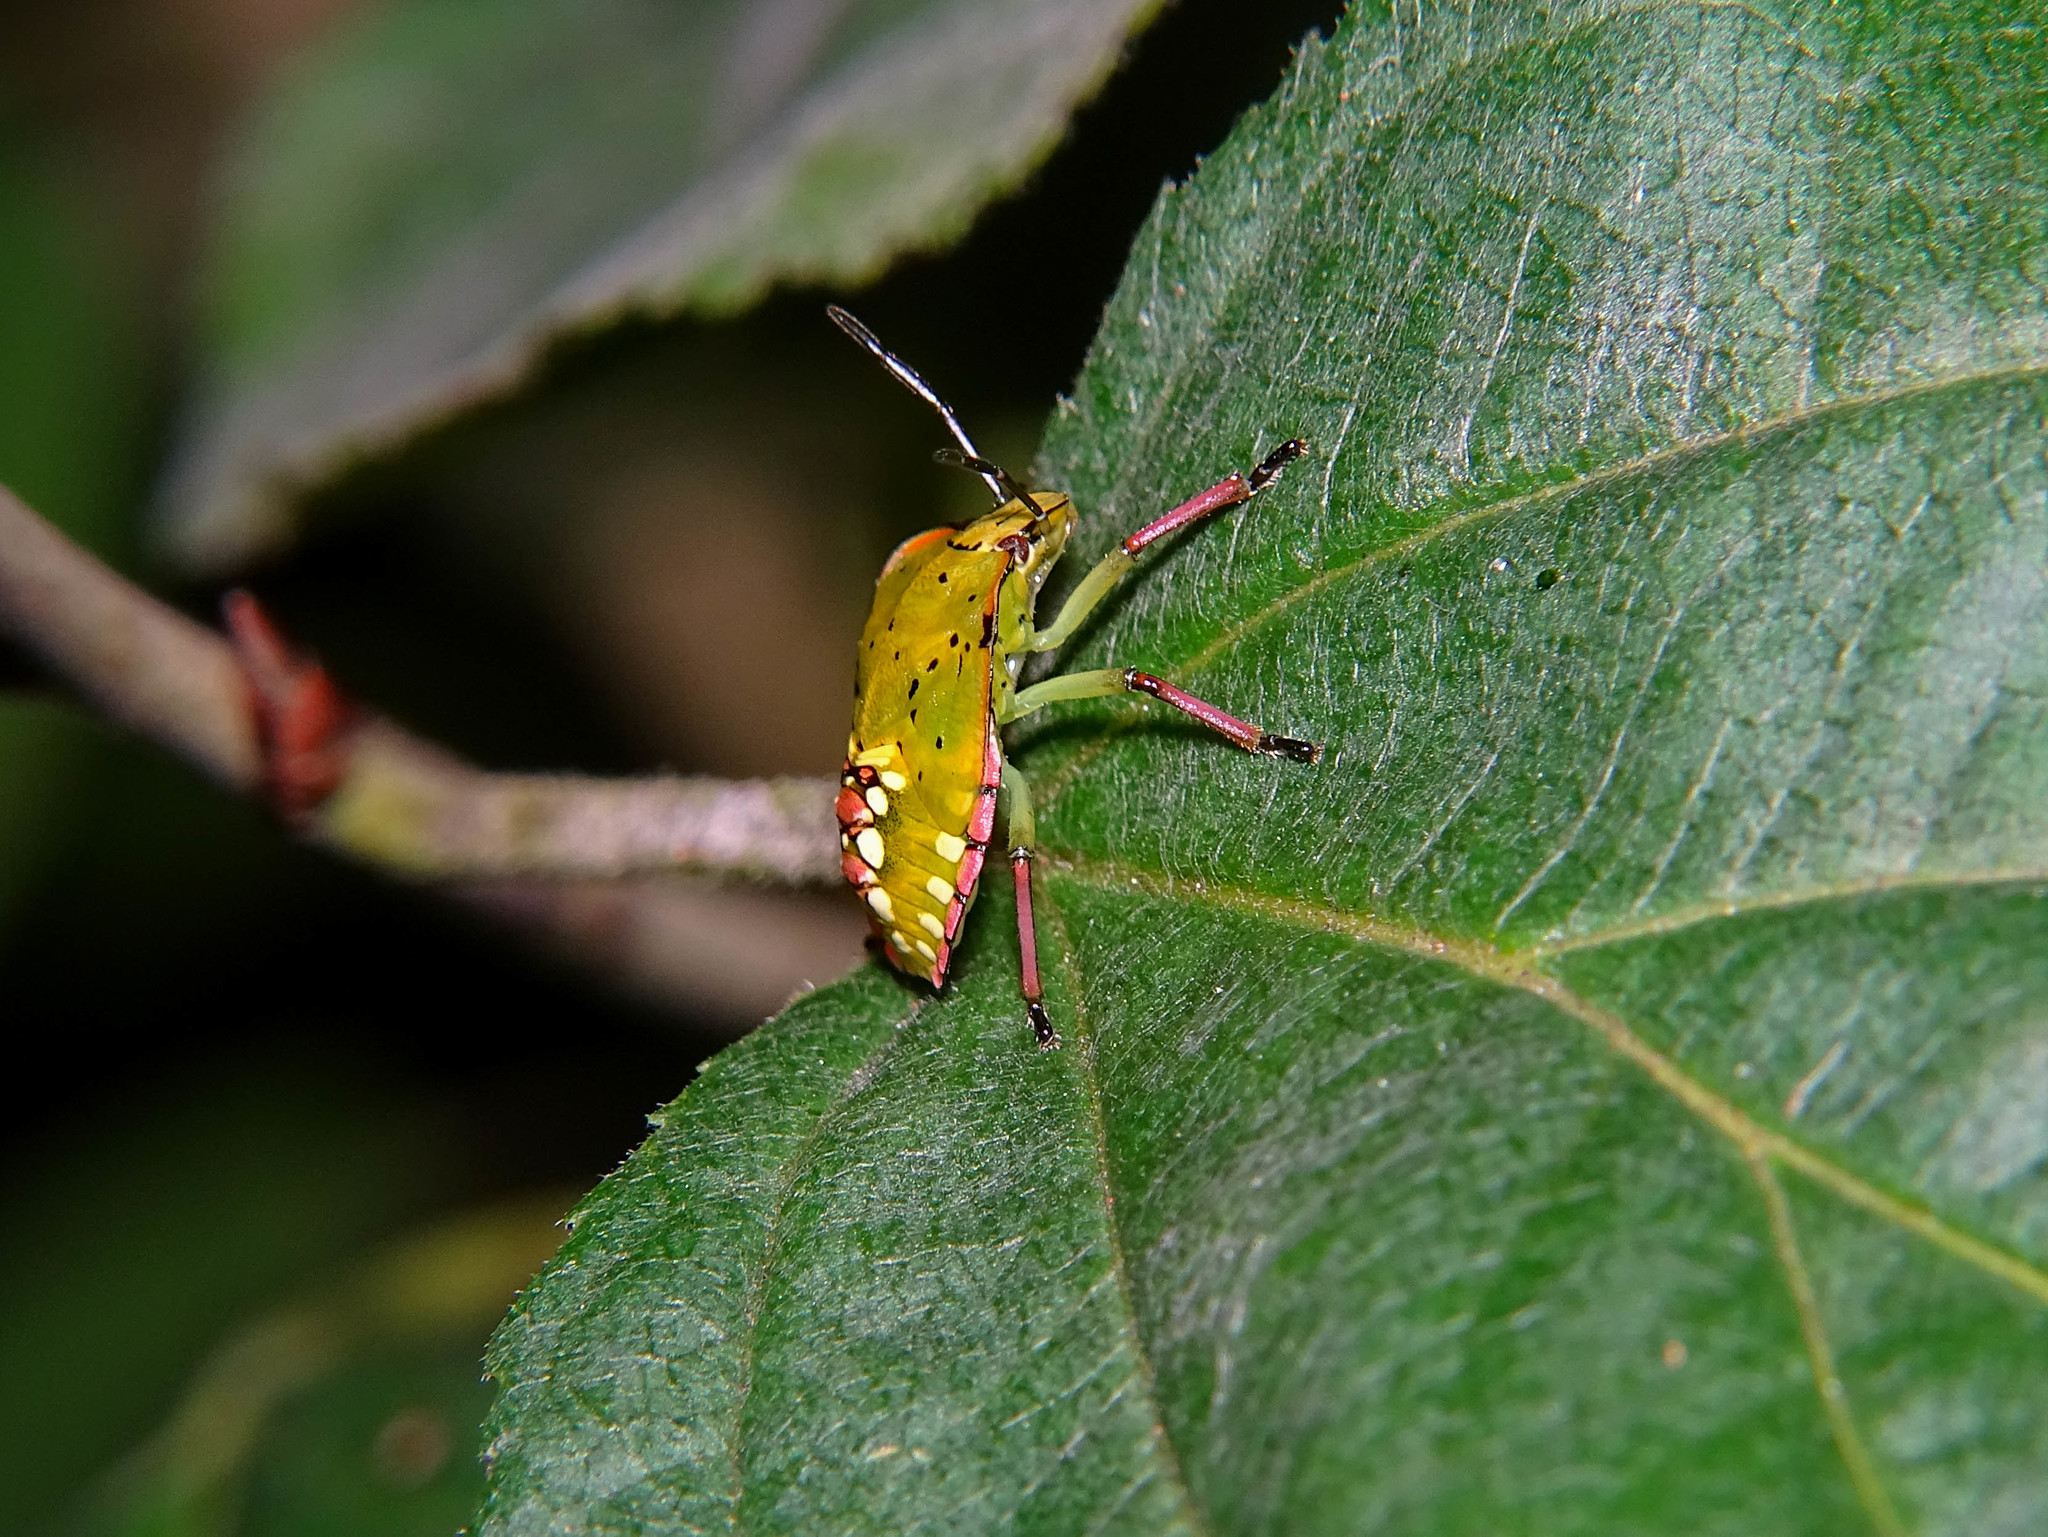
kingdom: Animalia
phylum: Arthropoda
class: Insecta
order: Hemiptera
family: Pentatomidae
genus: Nezara
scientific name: Nezara viridula
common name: Southern green stink bug
